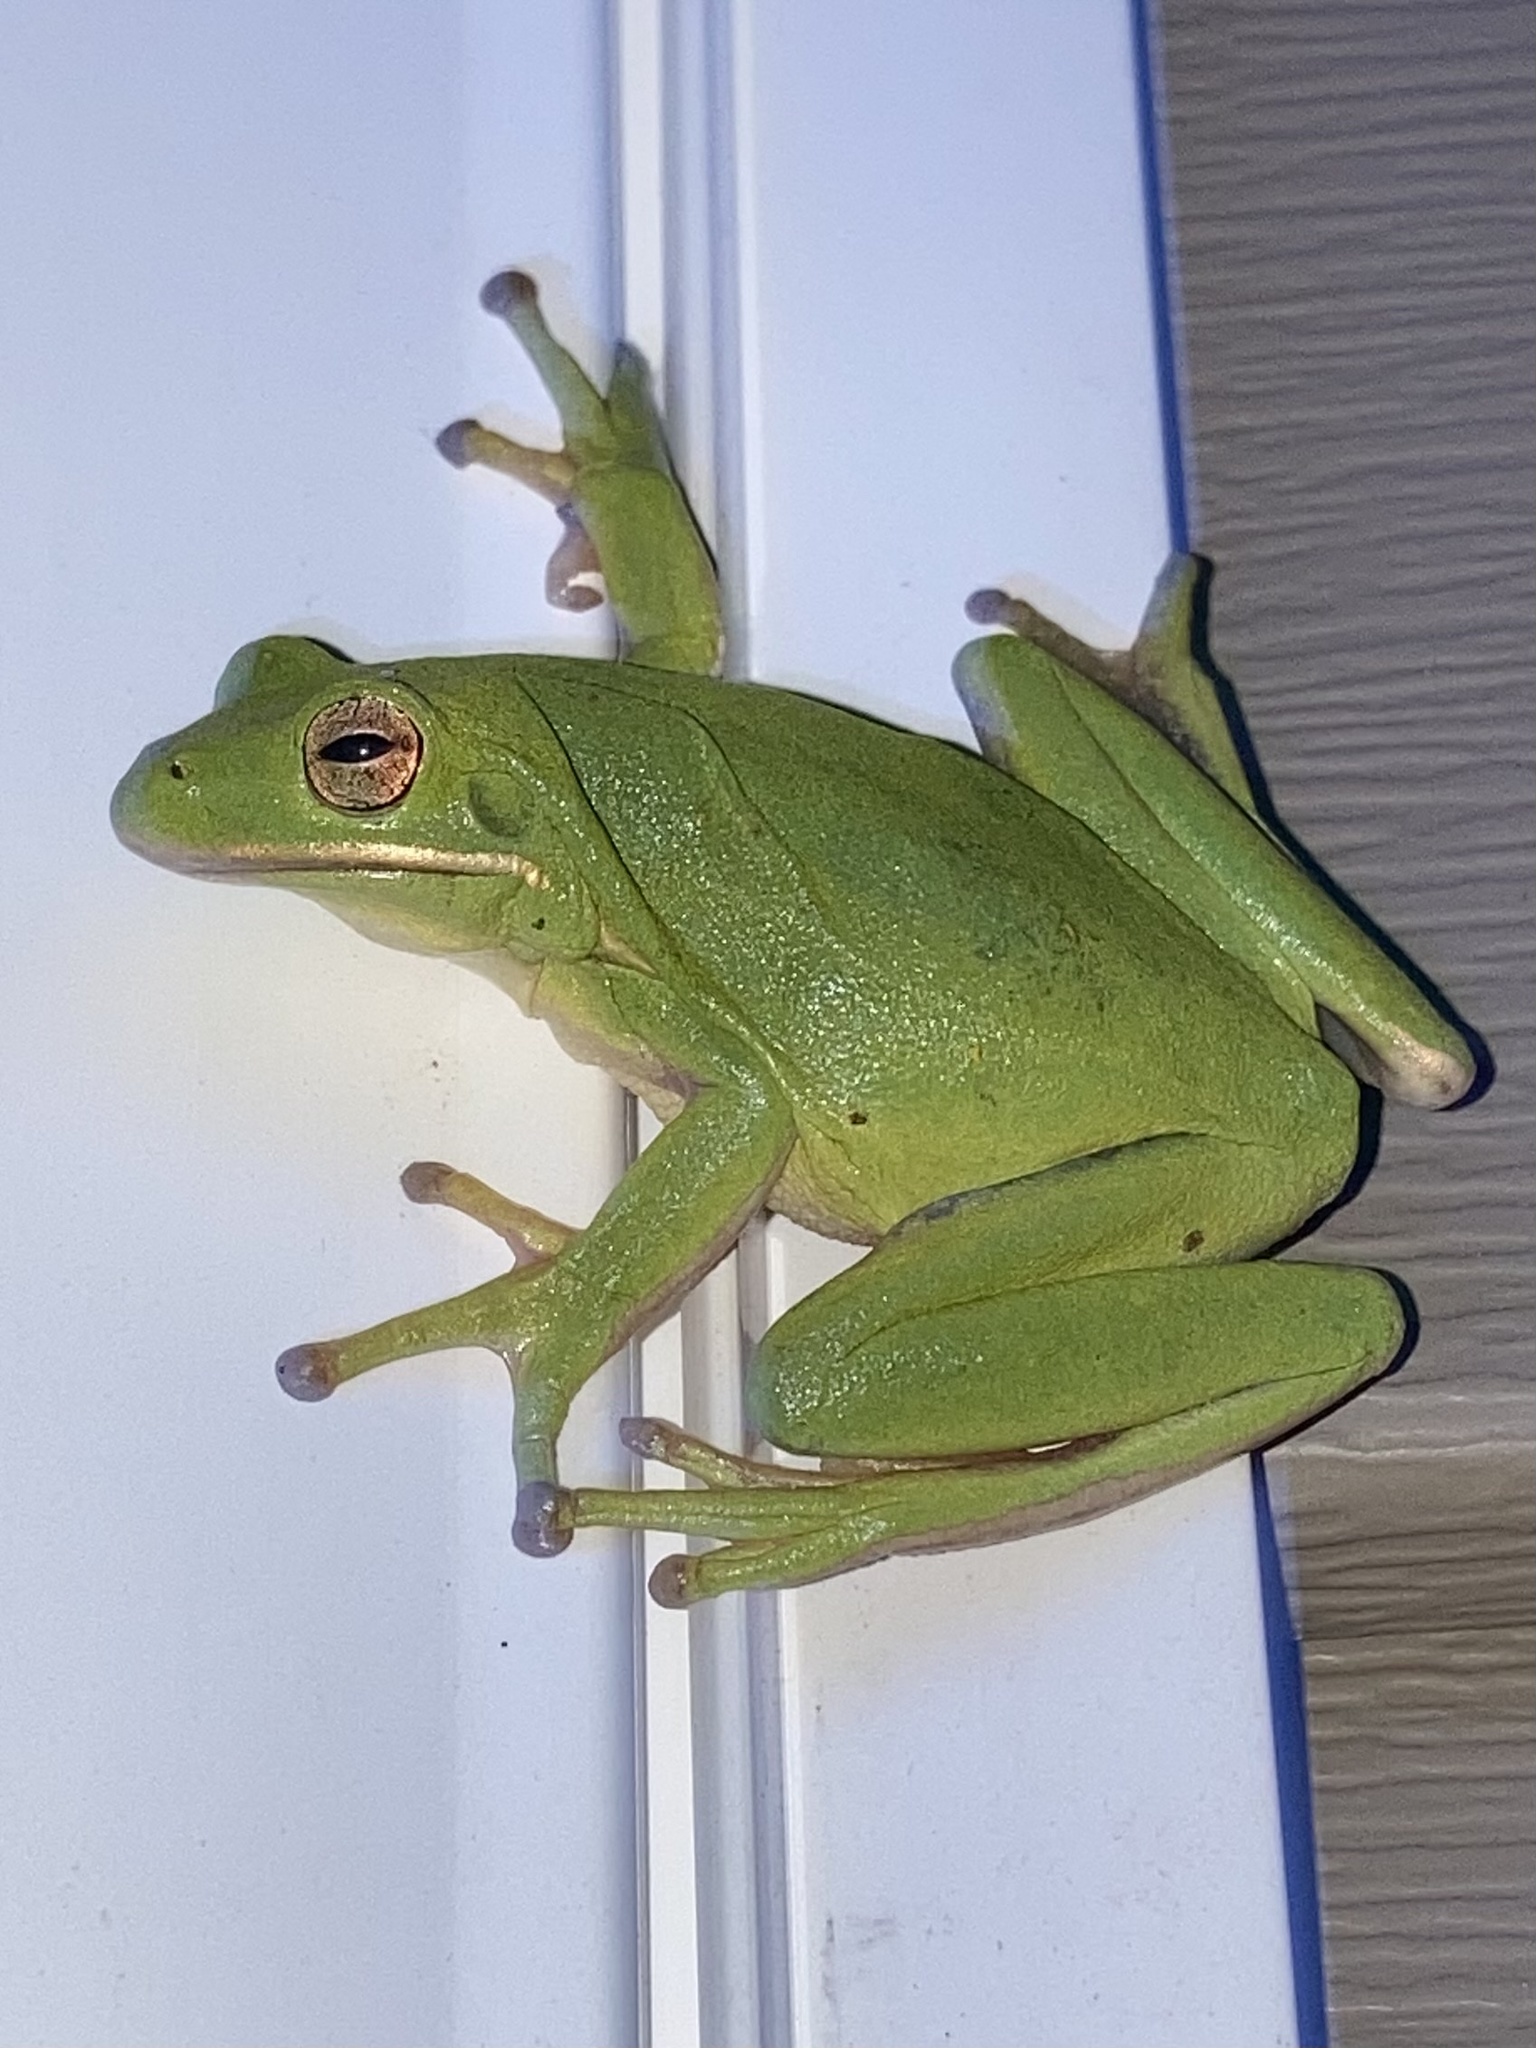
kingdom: Animalia
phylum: Chordata
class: Amphibia
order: Anura
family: Hylidae
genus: Dryophytes
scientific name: Dryophytes cinereus
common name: Green treefrog
